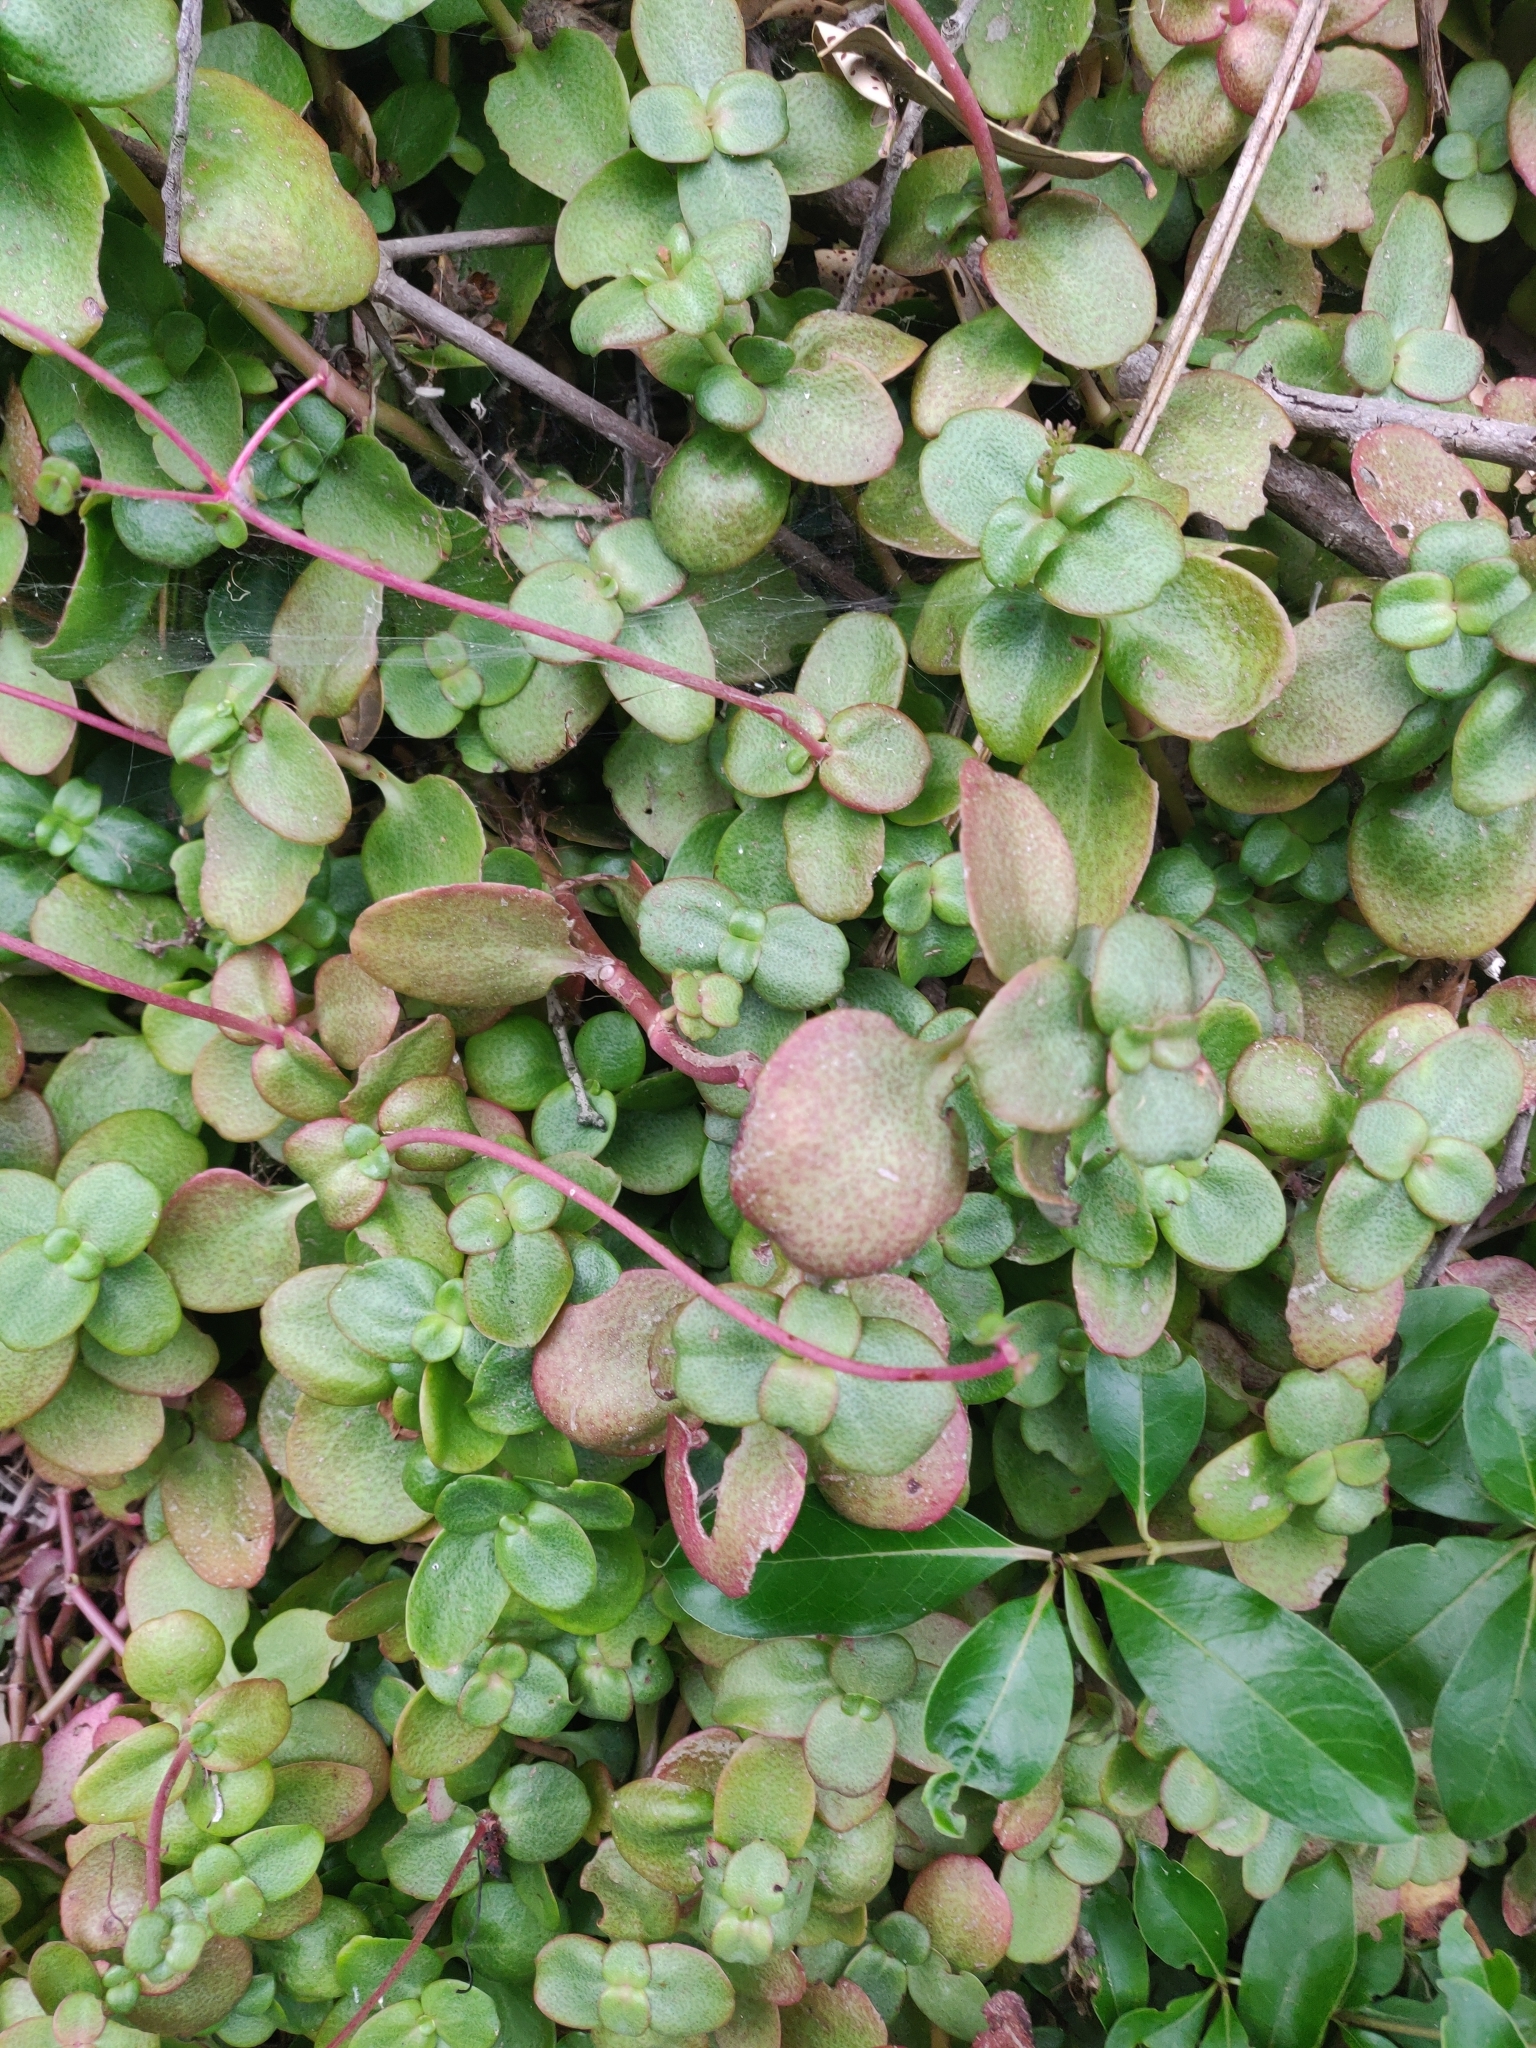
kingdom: Plantae
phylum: Tracheophyta
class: Magnoliopsida
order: Saxifragales
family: Crassulaceae
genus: Crassula
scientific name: Crassula multicava
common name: Cape province pygmyweed
